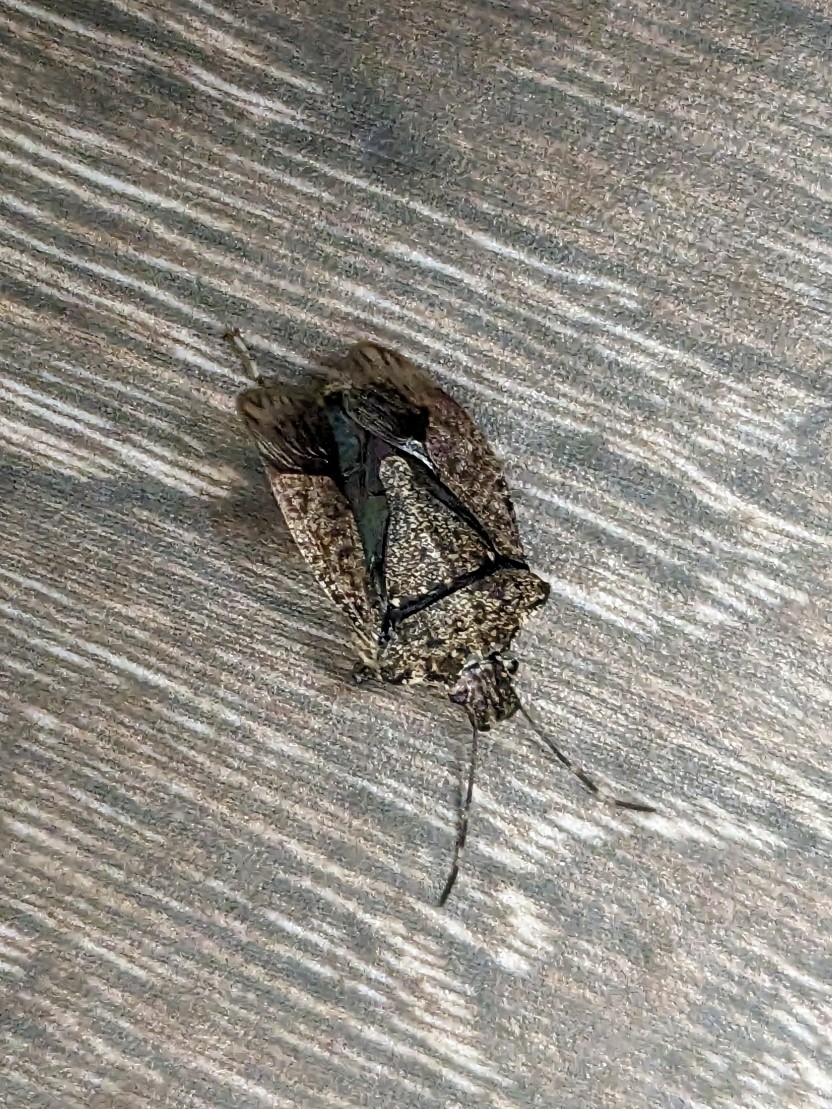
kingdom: Animalia
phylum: Arthropoda
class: Insecta
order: Hemiptera
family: Pentatomidae
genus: Halyomorpha
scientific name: Halyomorpha halys
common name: Brown marmorated stink bug
